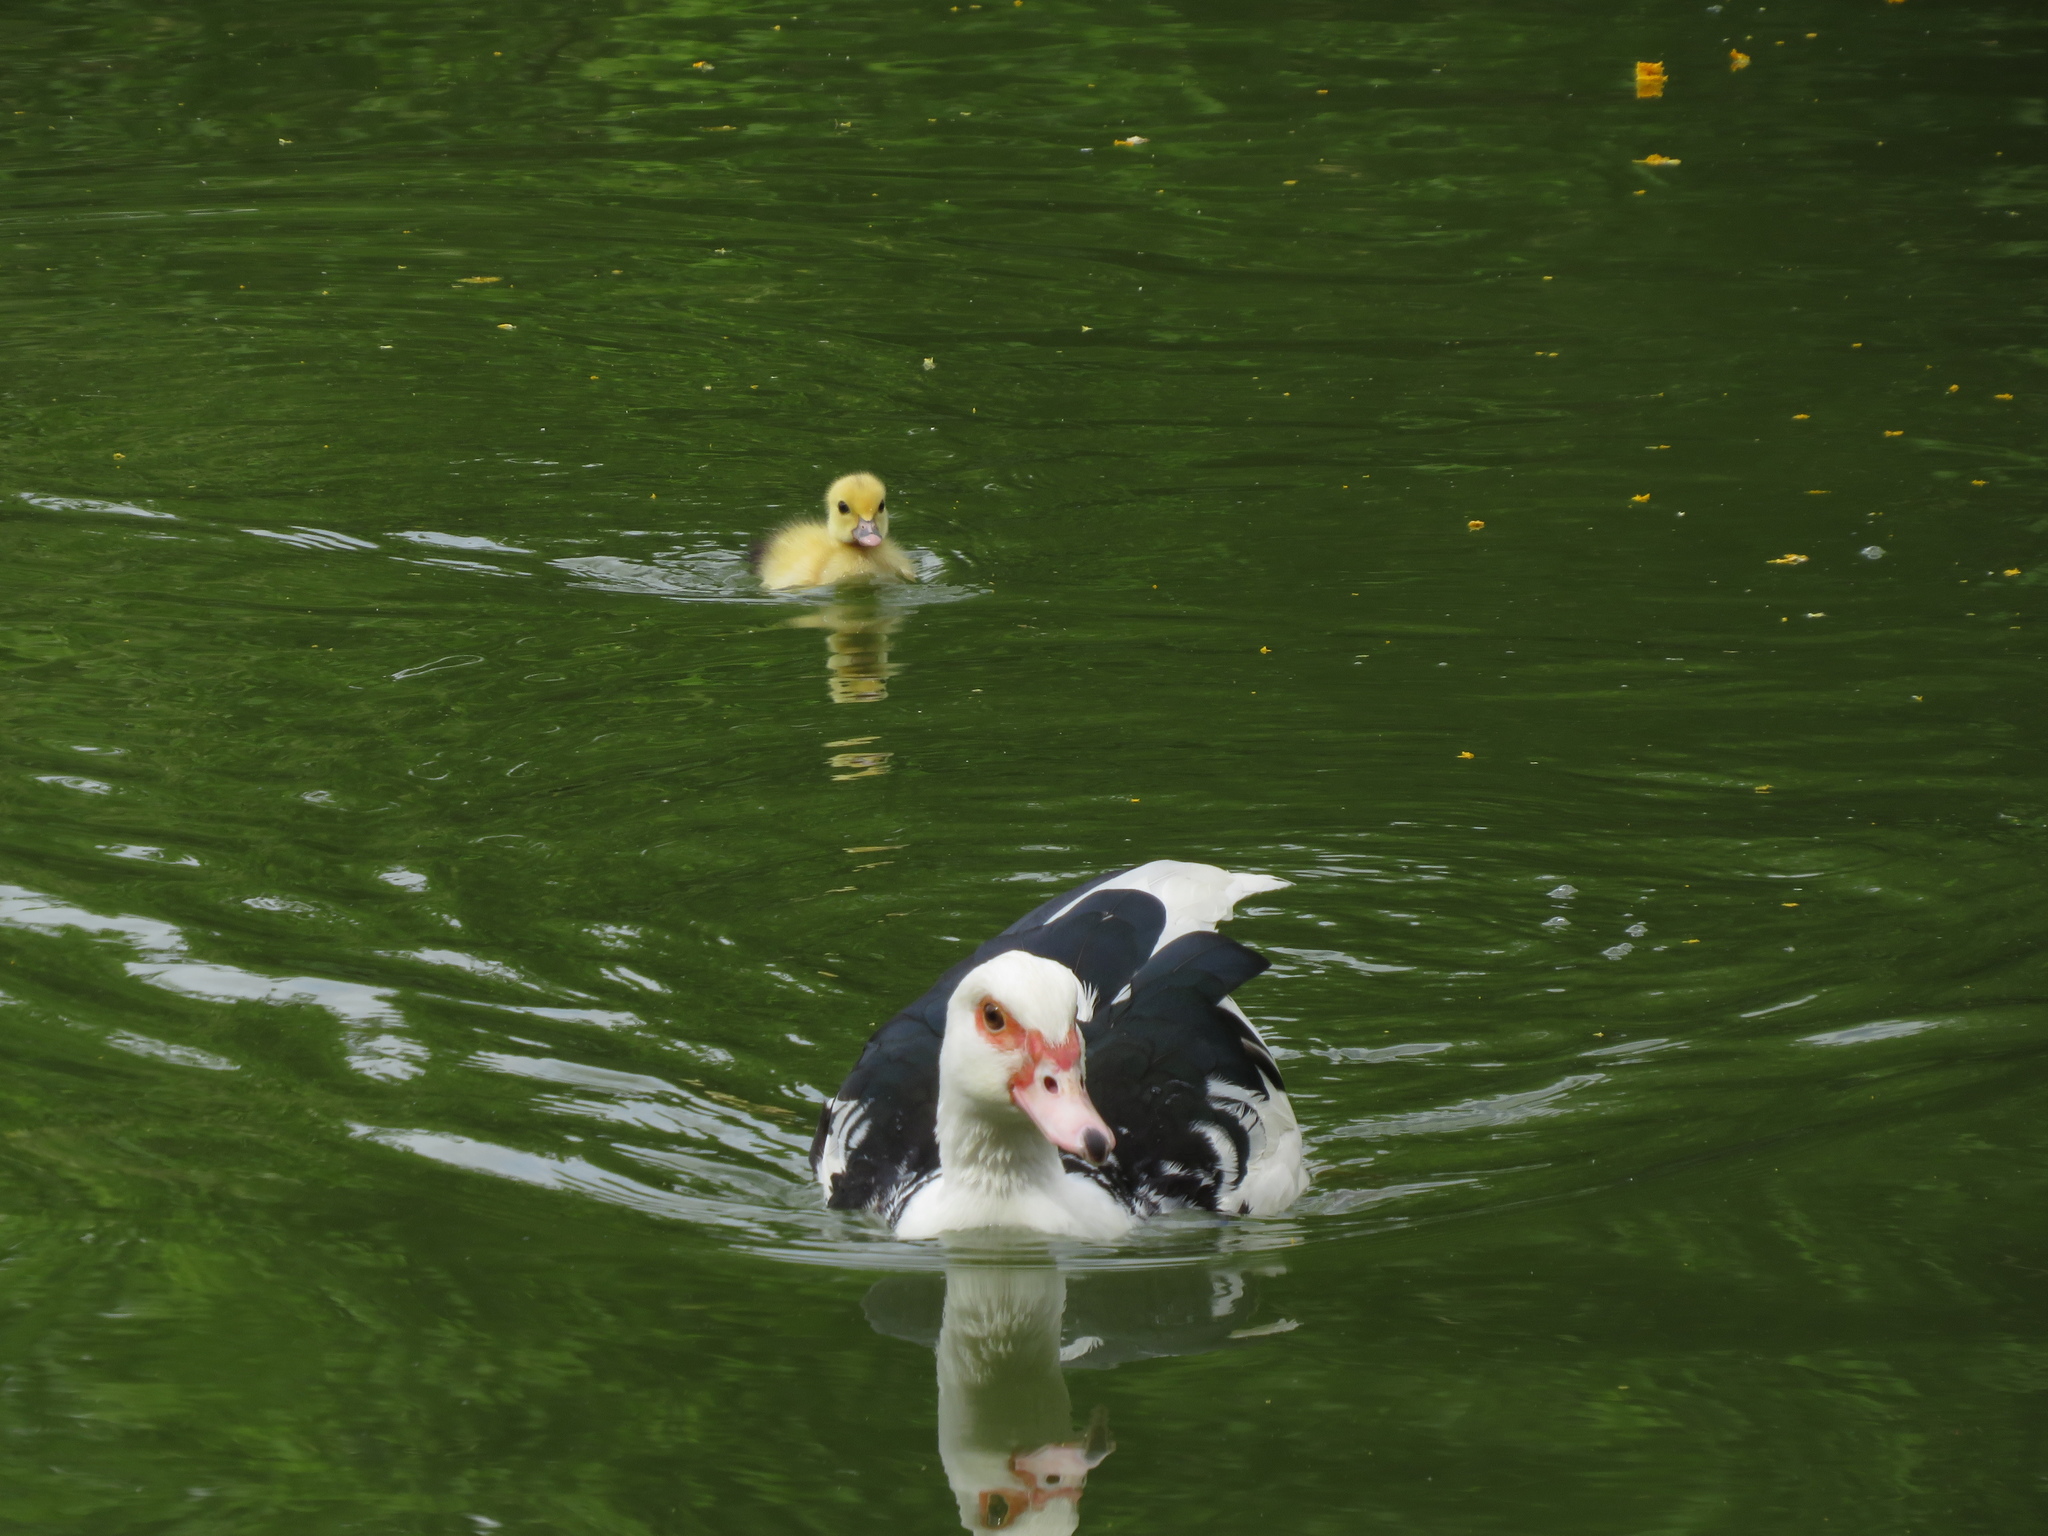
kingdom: Animalia
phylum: Chordata
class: Aves
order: Anseriformes
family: Anatidae
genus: Cairina
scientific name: Cairina moschata
